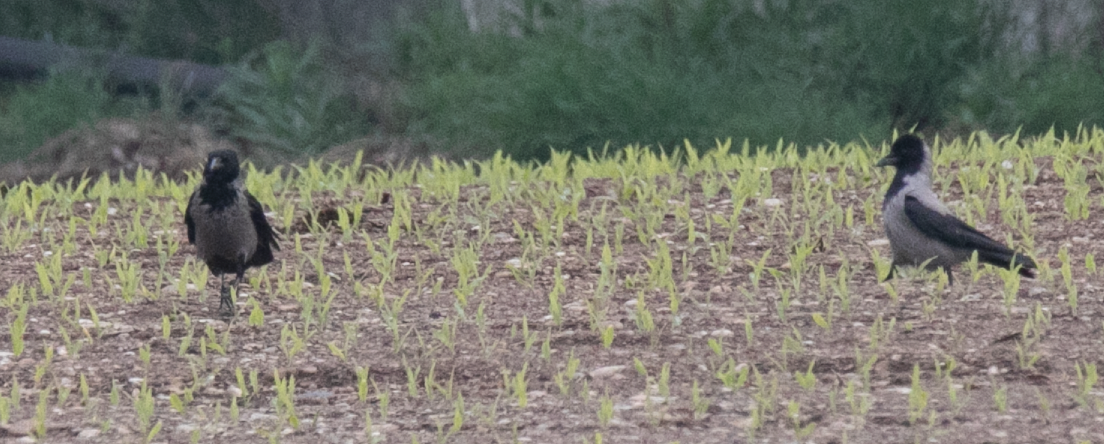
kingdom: Animalia
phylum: Chordata
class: Aves
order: Passeriformes
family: Corvidae
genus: Corvus
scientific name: Corvus cornix
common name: Hooded crow
